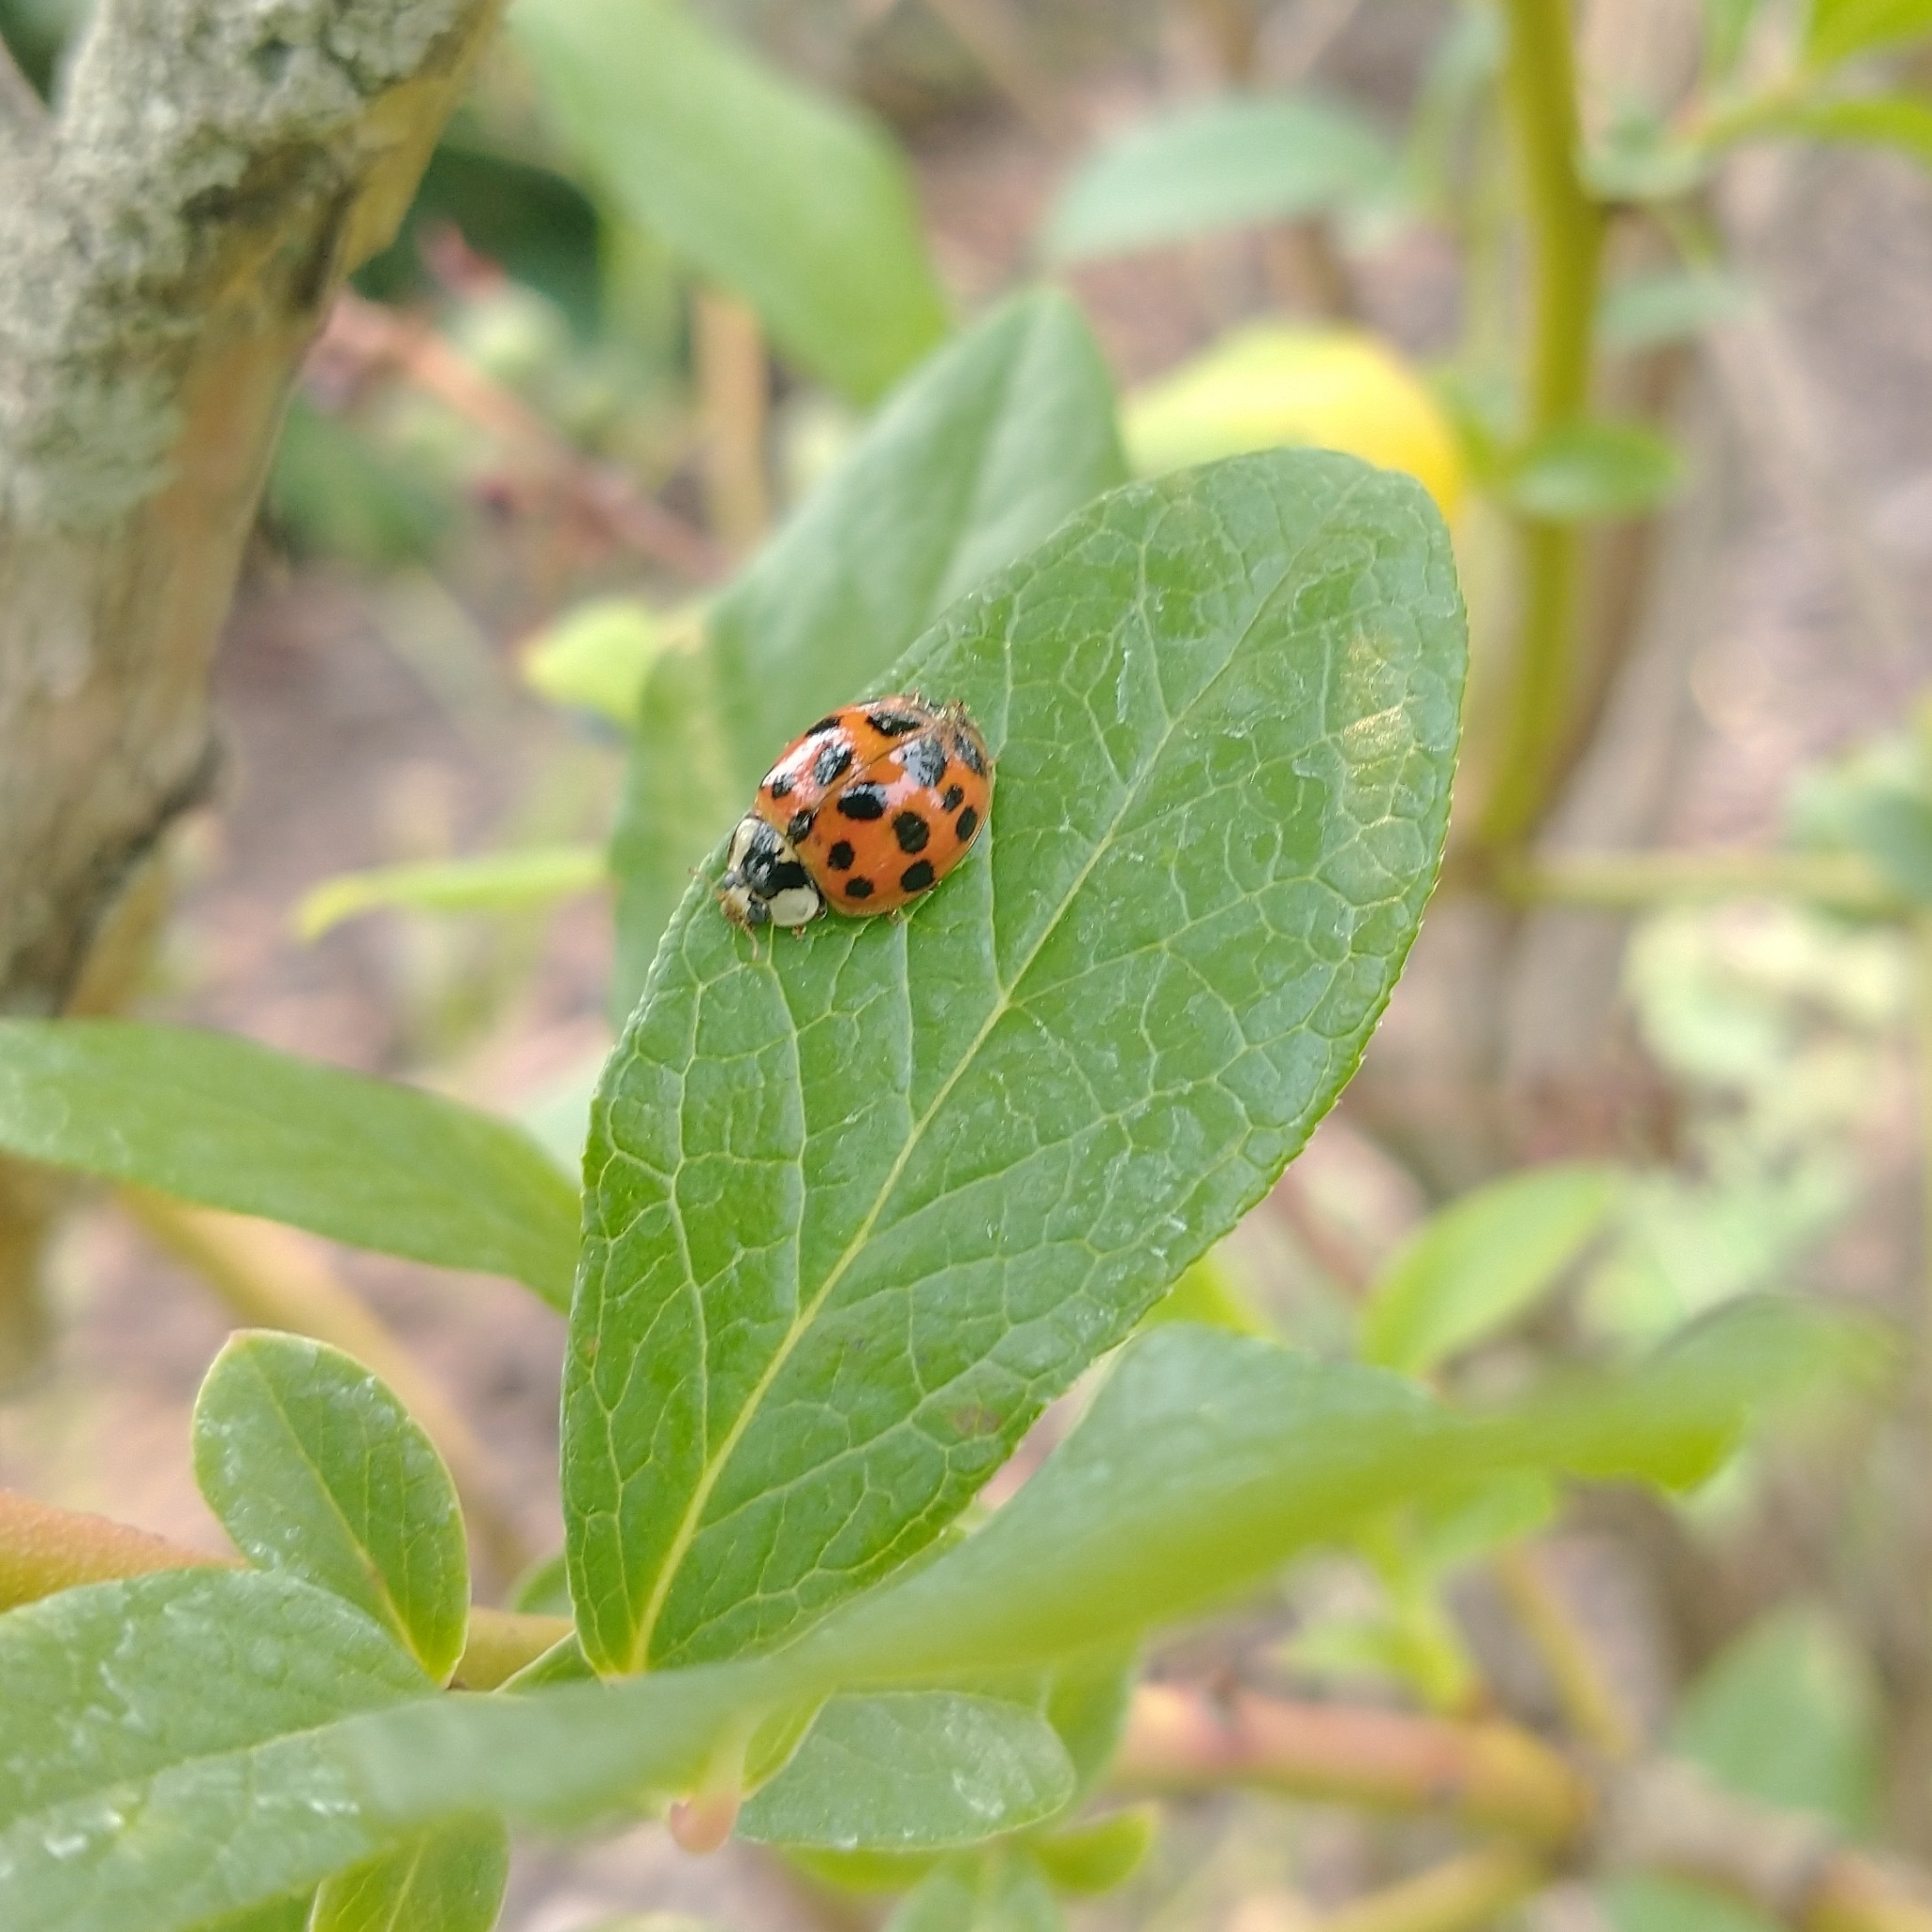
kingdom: Animalia
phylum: Arthropoda
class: Insecta
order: Coleoptera
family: Coccinellidae
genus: Harmonia
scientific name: Harmonia axyridis
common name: Harlequin ladybird
